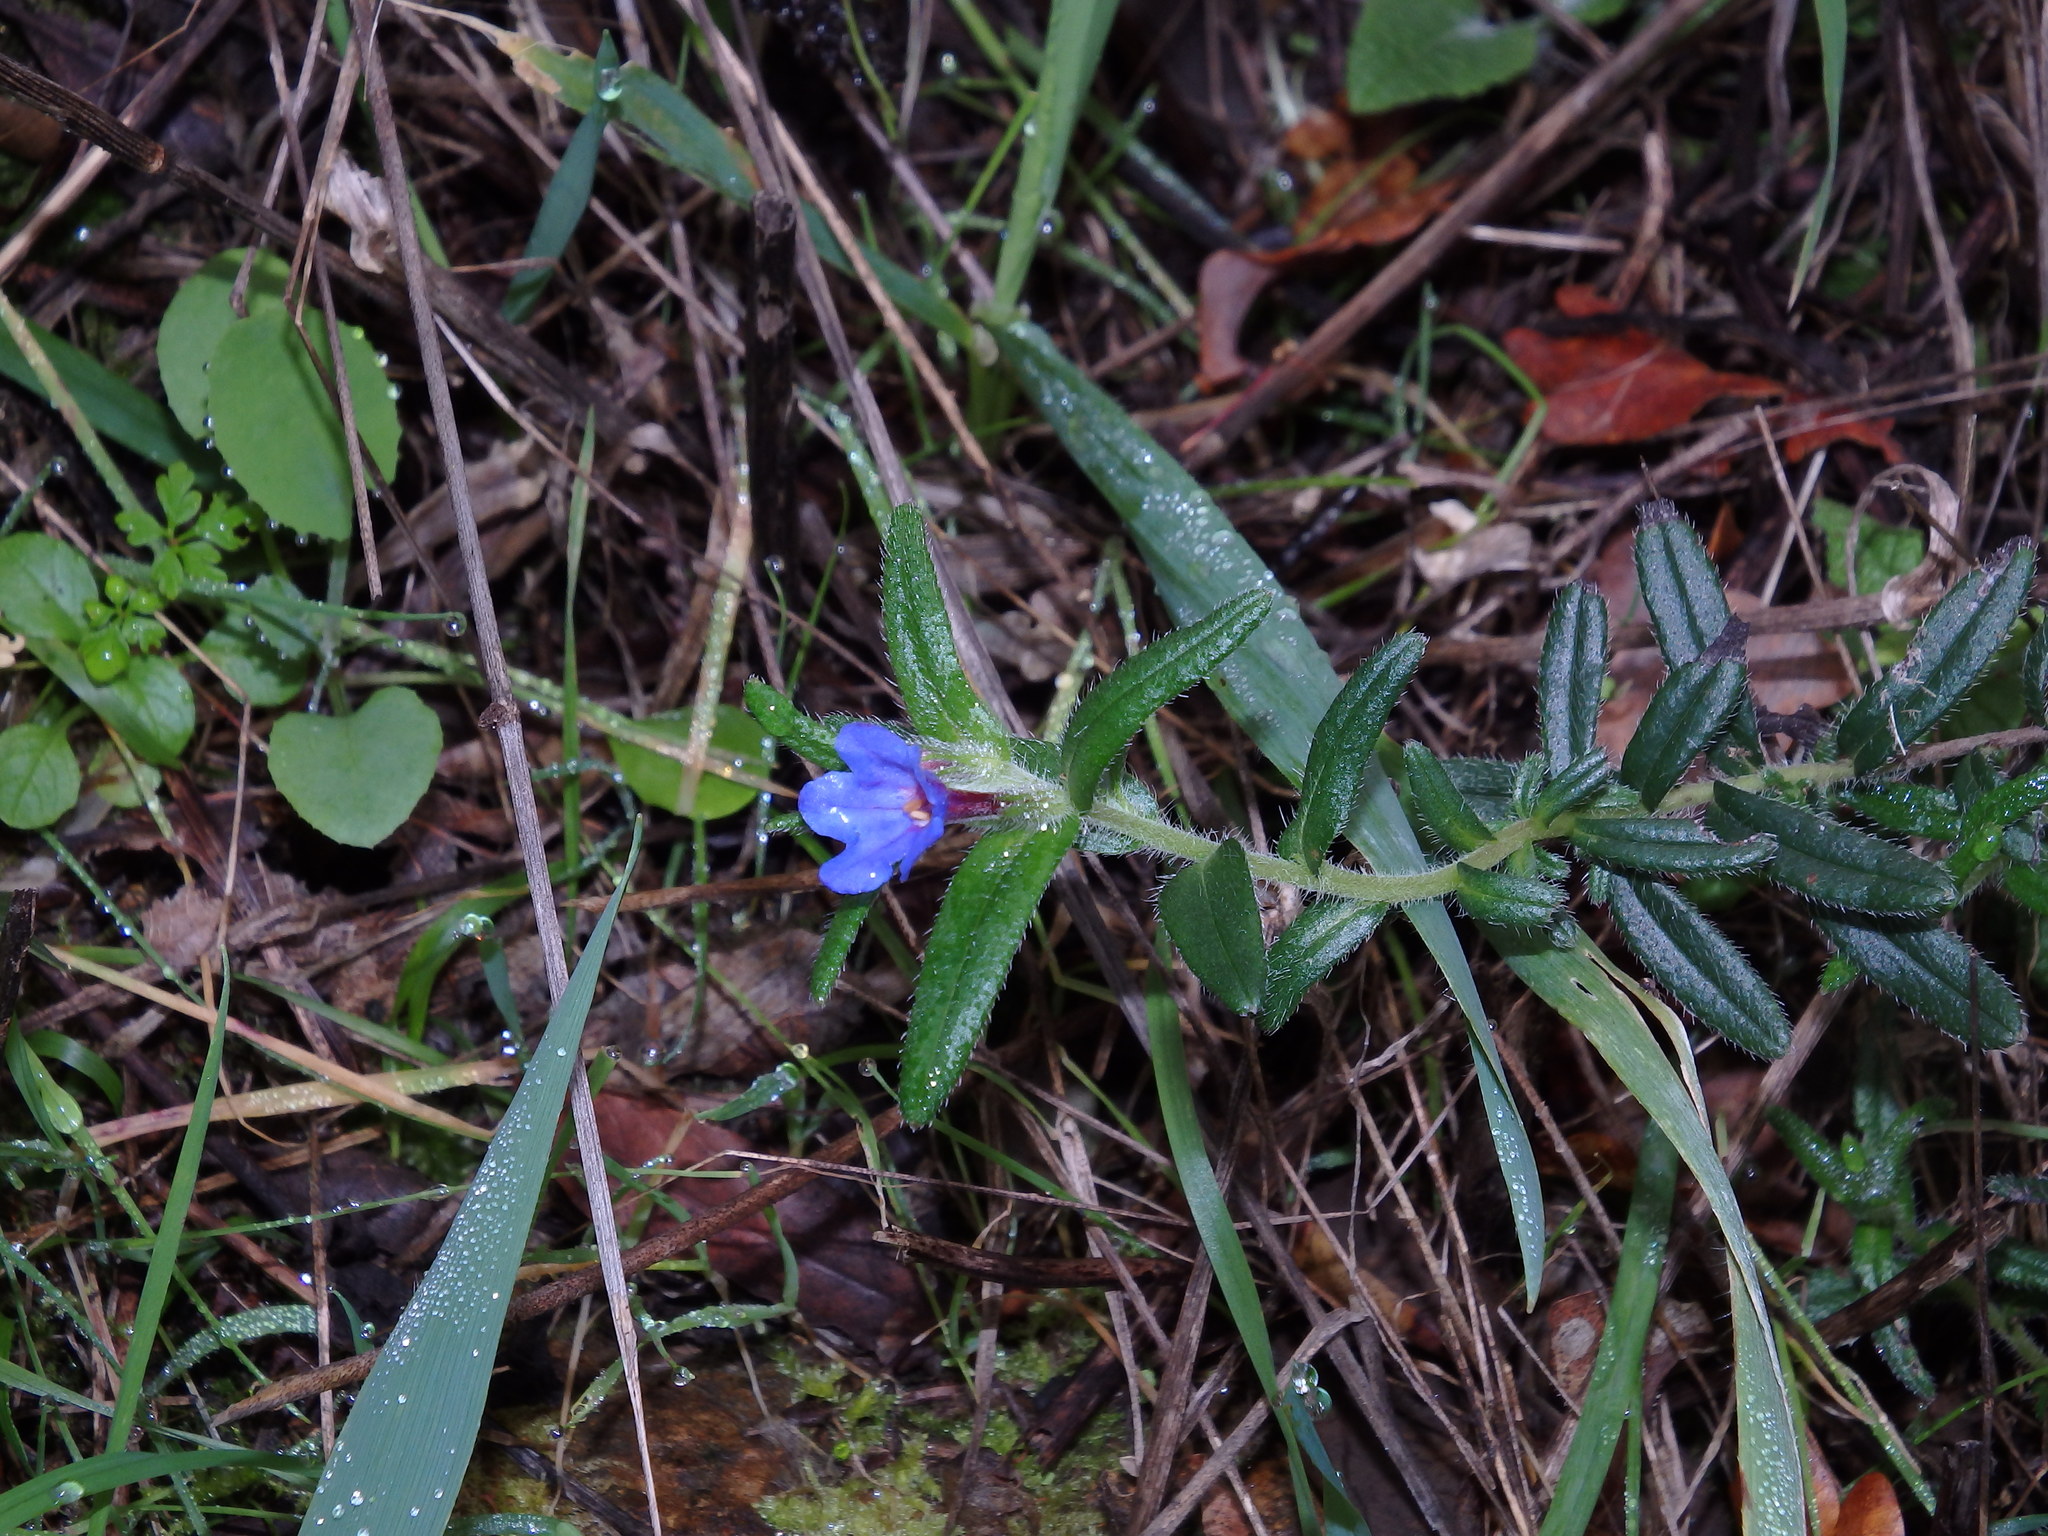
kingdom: Plantae
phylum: Tracheophyta
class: Magnoliopsida
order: Boraginales
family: Boraginaceae
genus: Glandora
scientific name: Glandora prostrata
